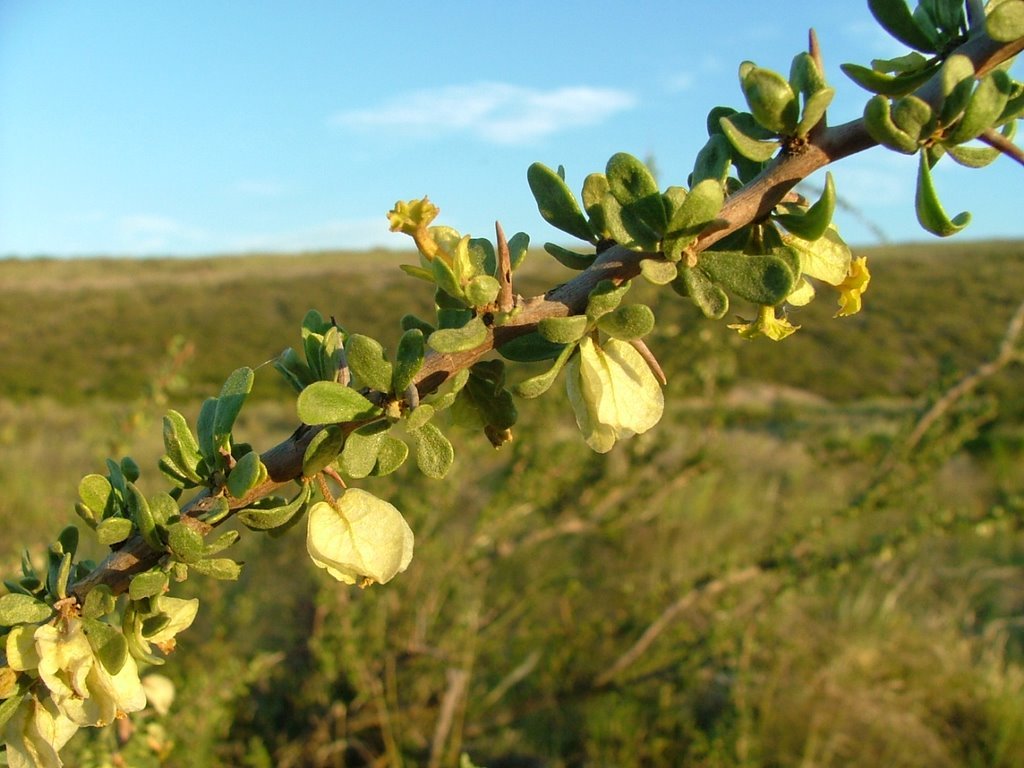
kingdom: Plantae
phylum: Tracheophyta
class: Magnoliopsida
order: Caryophyllales
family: Nyctaginaceae
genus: Bougainvillea
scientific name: Bougainvillea spinosa
